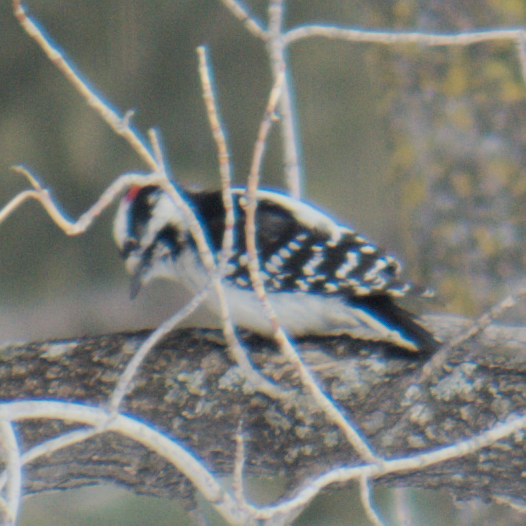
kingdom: Animalia
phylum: Chordata
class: Aves
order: Piciformes
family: Picidae
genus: Dryobates
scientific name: Dryobates pubescens
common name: Downy woodpecker
